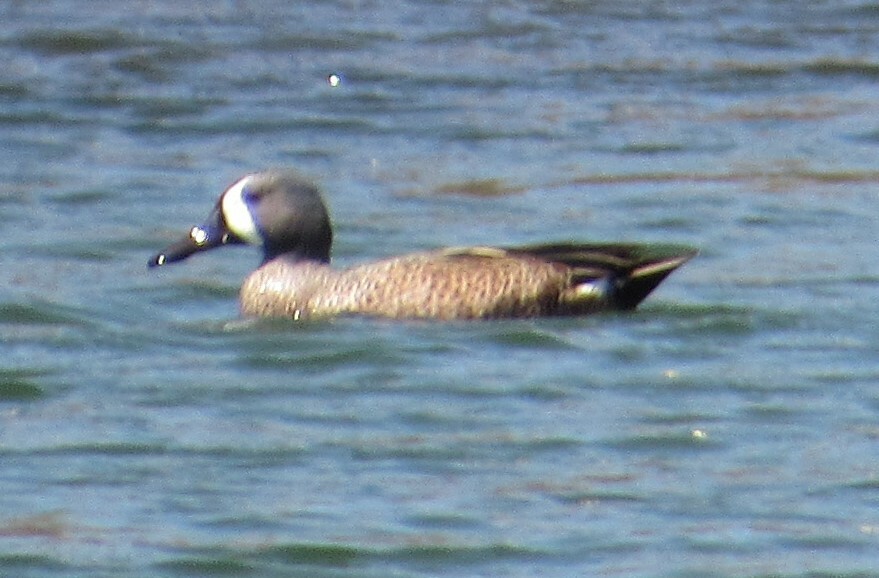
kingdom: Animalia
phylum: Chordata
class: Aves
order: Anseriformes
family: Anatidae
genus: Spatula
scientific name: Spatula discors
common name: Blue-winged teal
